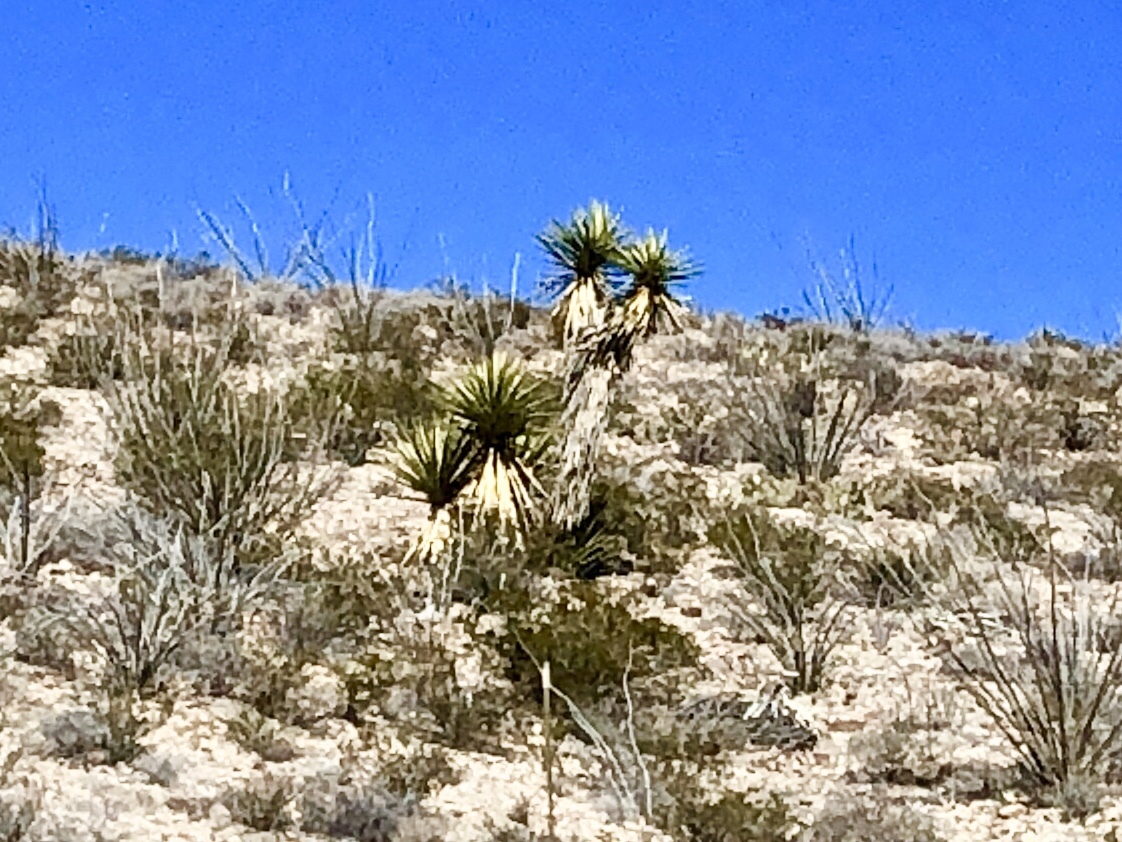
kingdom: Plantae
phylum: Tracheophyta
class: Liliopsida
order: Asparagales
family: Asparagaceae
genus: Yucca
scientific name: Yucca treculiana
